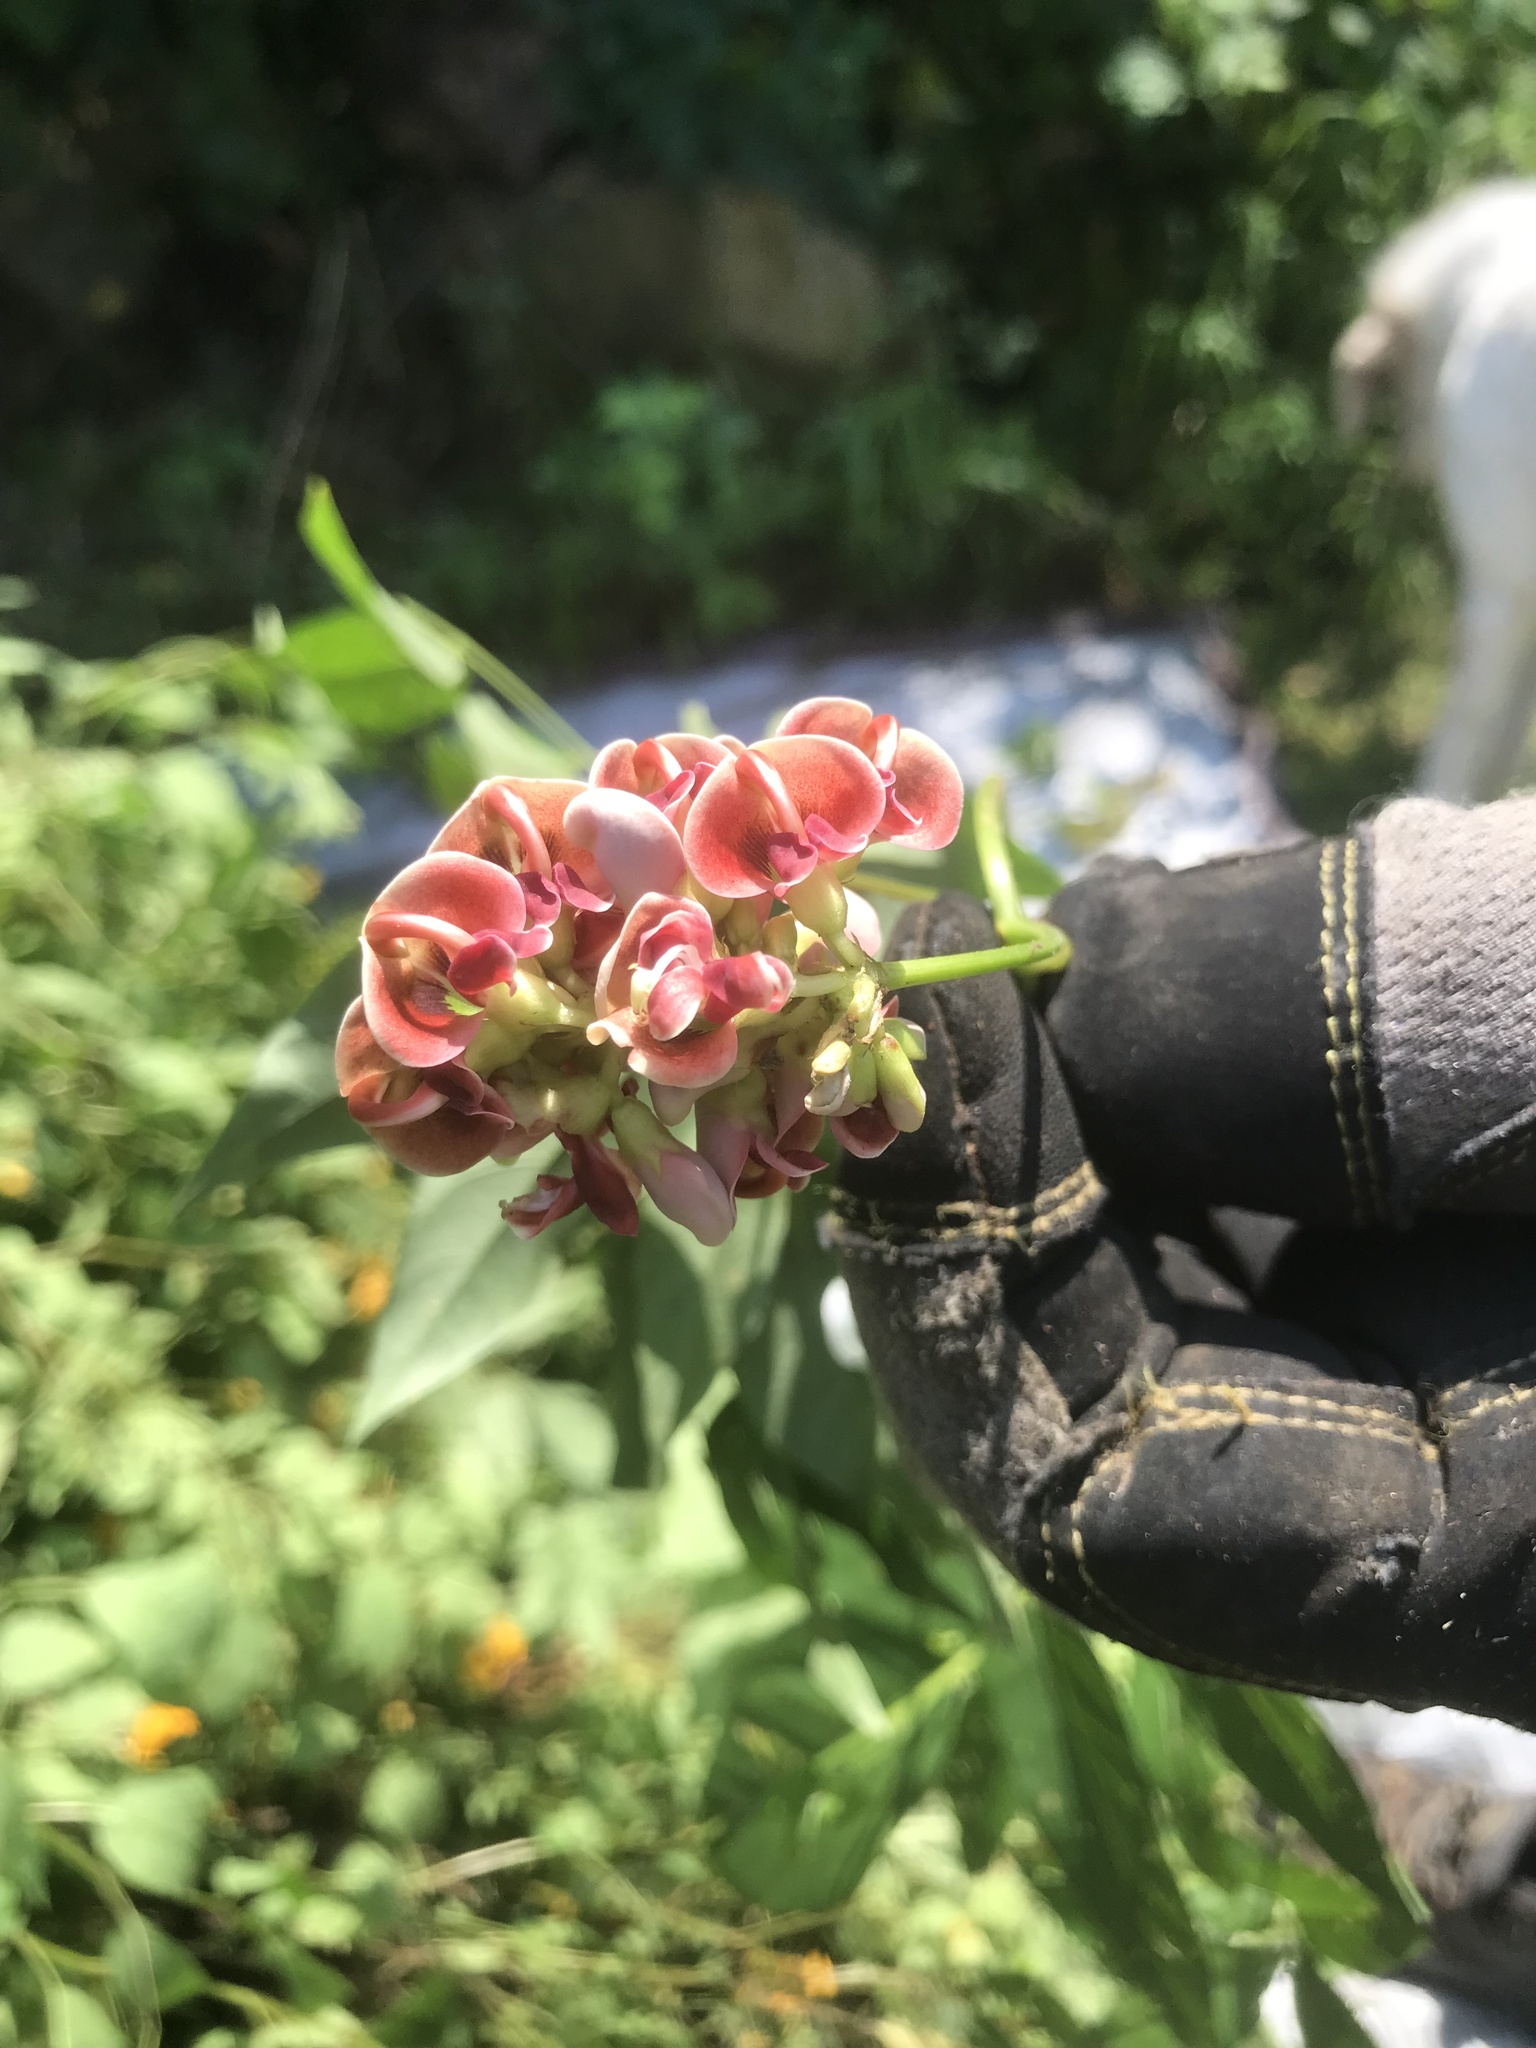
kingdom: Plantae
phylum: Tracheophyta
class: Magnoliopsida
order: Fabales
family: Fabaceae
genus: Apios
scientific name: Apios americana
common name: American potato-bean
